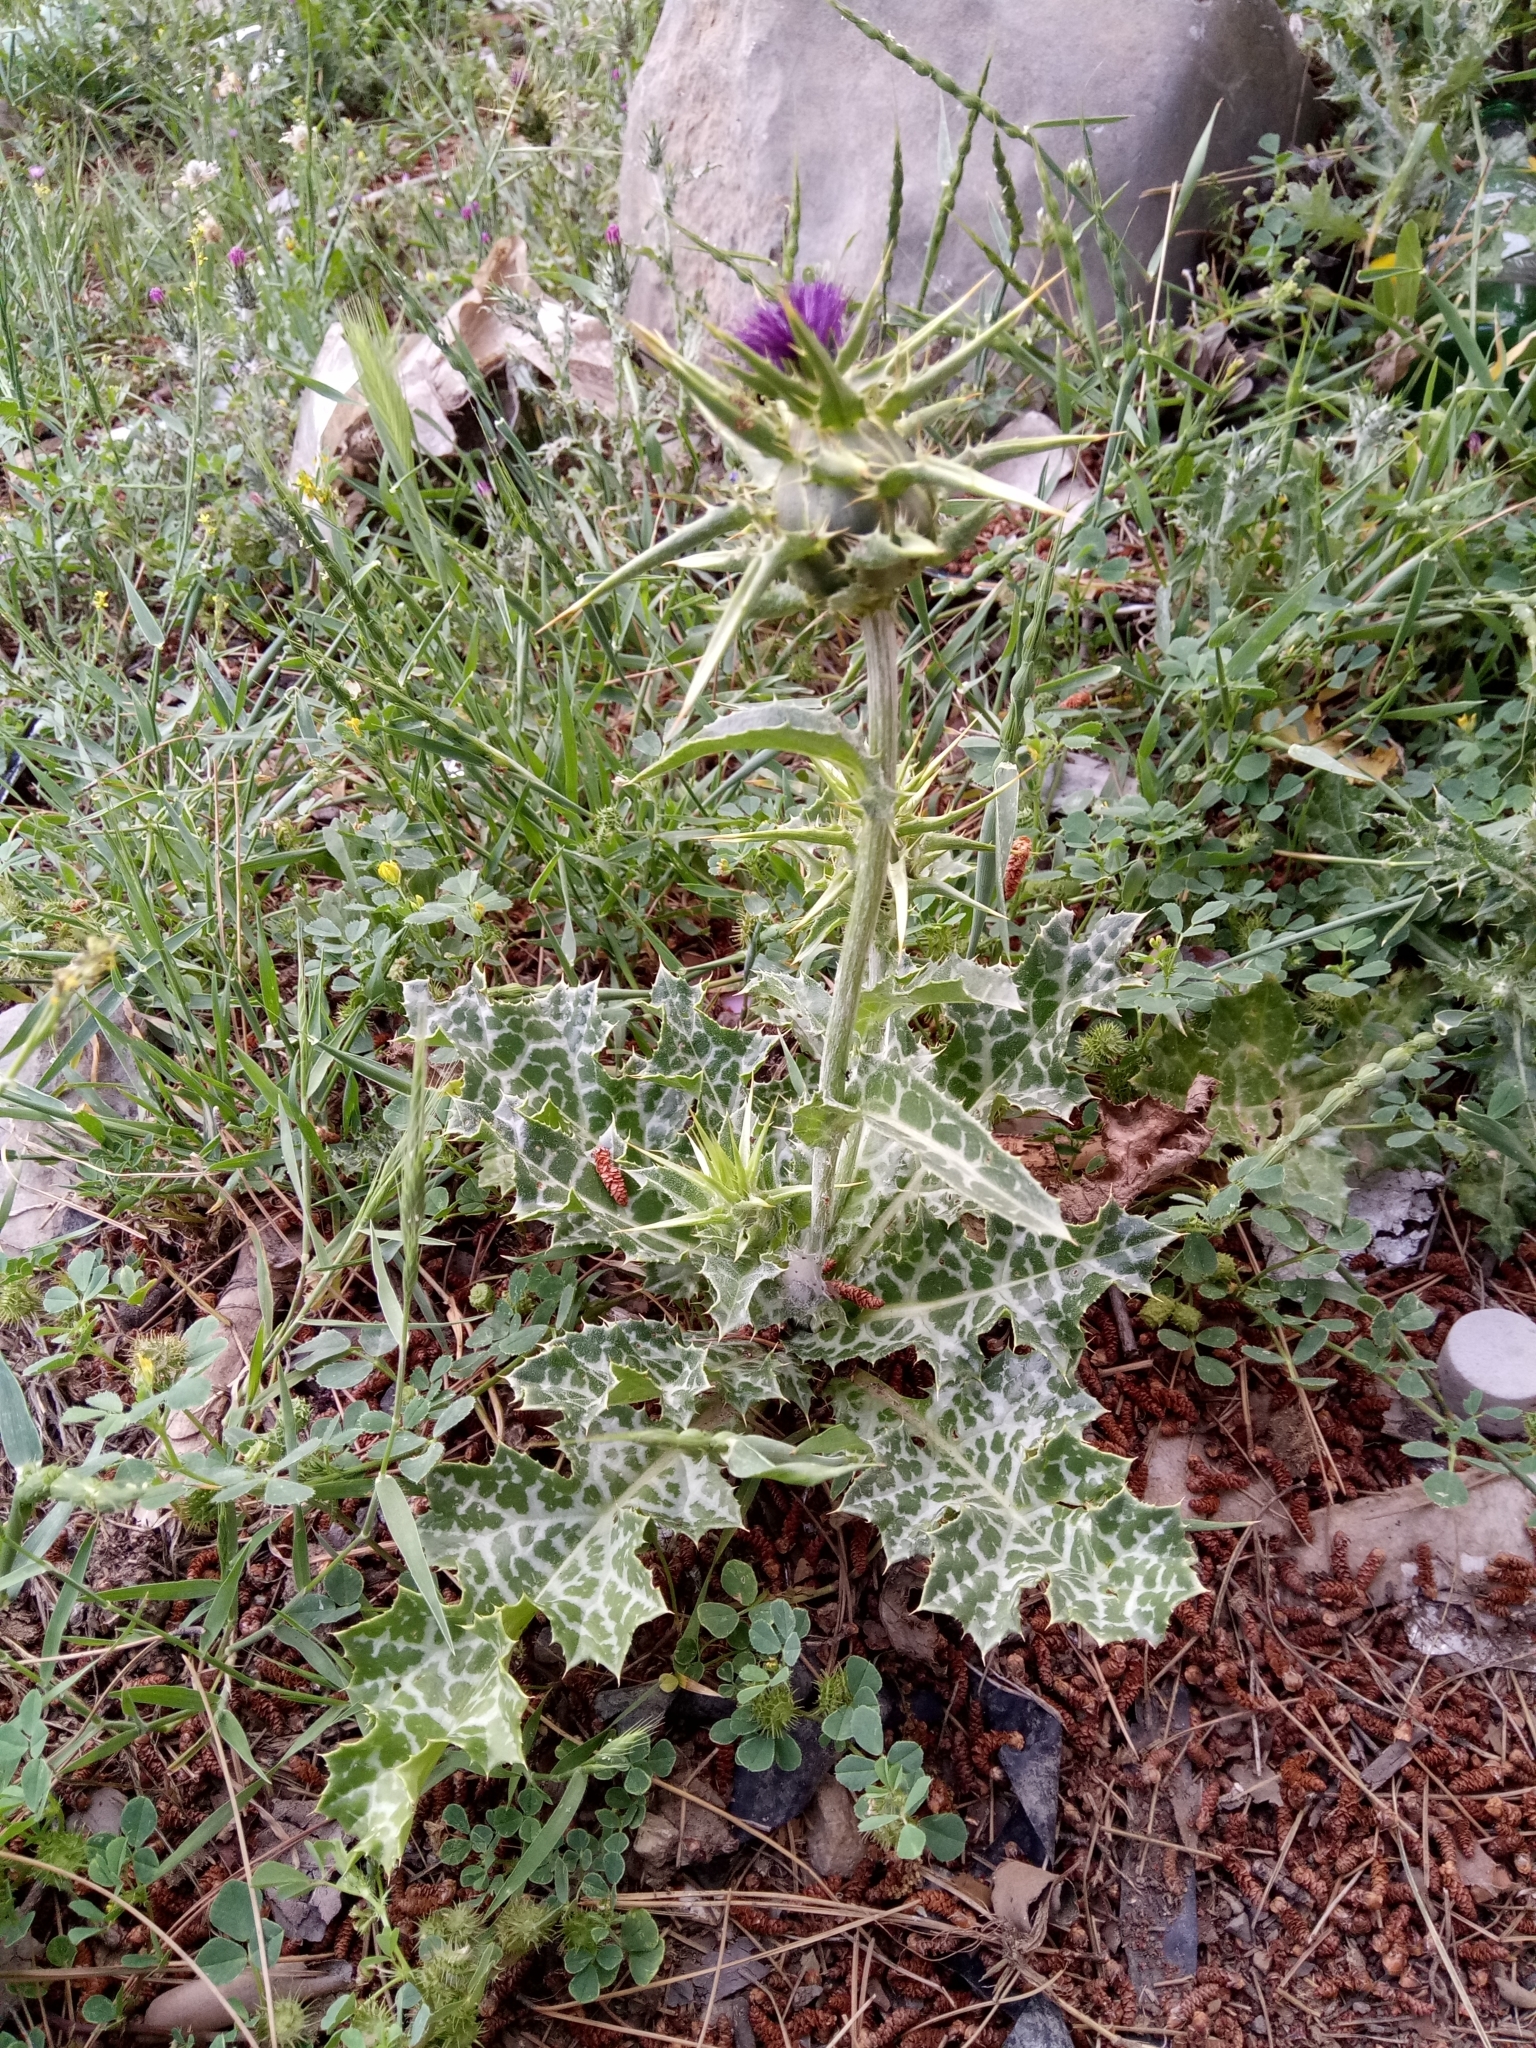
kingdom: Plantae
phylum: Tracheophyta
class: Magnoliopsida
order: Asterales
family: Asteraceae
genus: Silybum
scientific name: Silybum marianum
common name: Milk thistle
